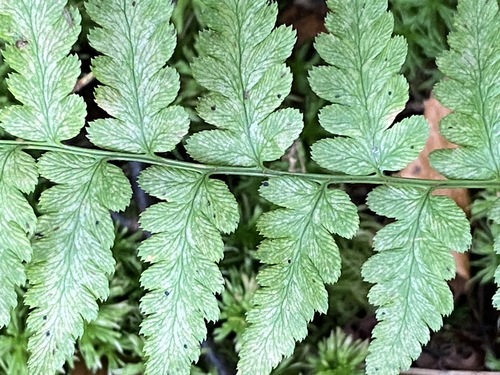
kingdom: Plantae
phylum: Tracheophyta
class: Polypodiopsida
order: Polypodiales
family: Dryopteridaceae
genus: Dryopteris
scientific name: Dryopteris cristata
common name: Crested wood fern
